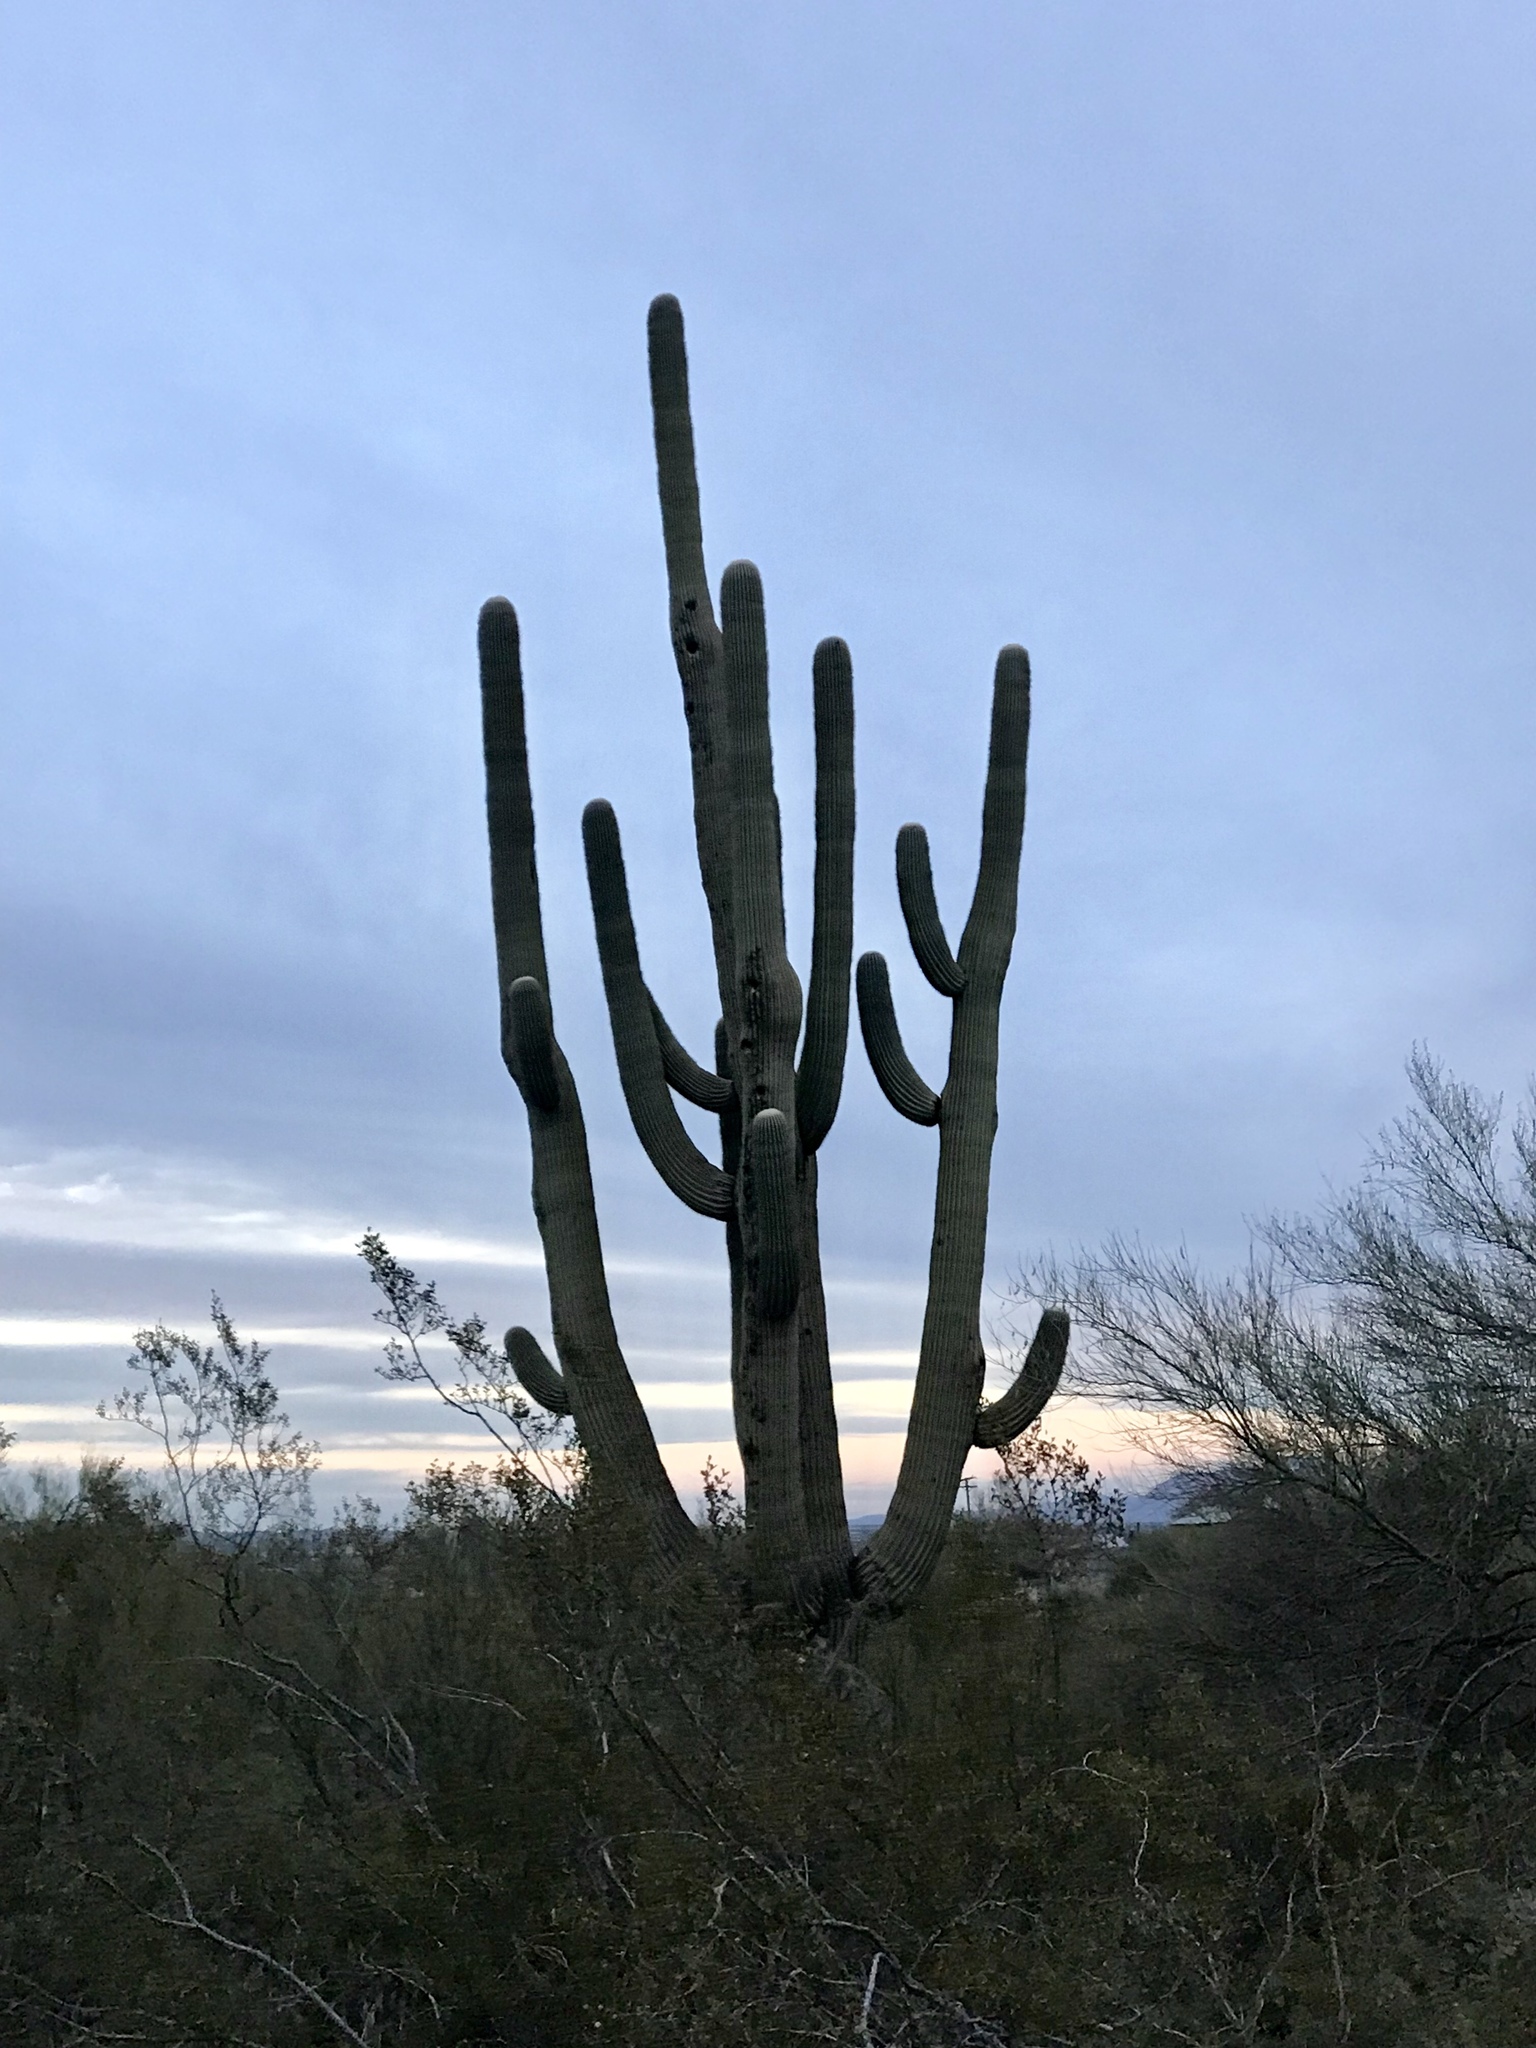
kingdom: Plantae
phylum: Tracheophyta
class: Magnoliopsida
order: Caryophyllales
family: Cactaceae
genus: Carnegiea
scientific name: Carnegiea gigantea
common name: Saguaro
